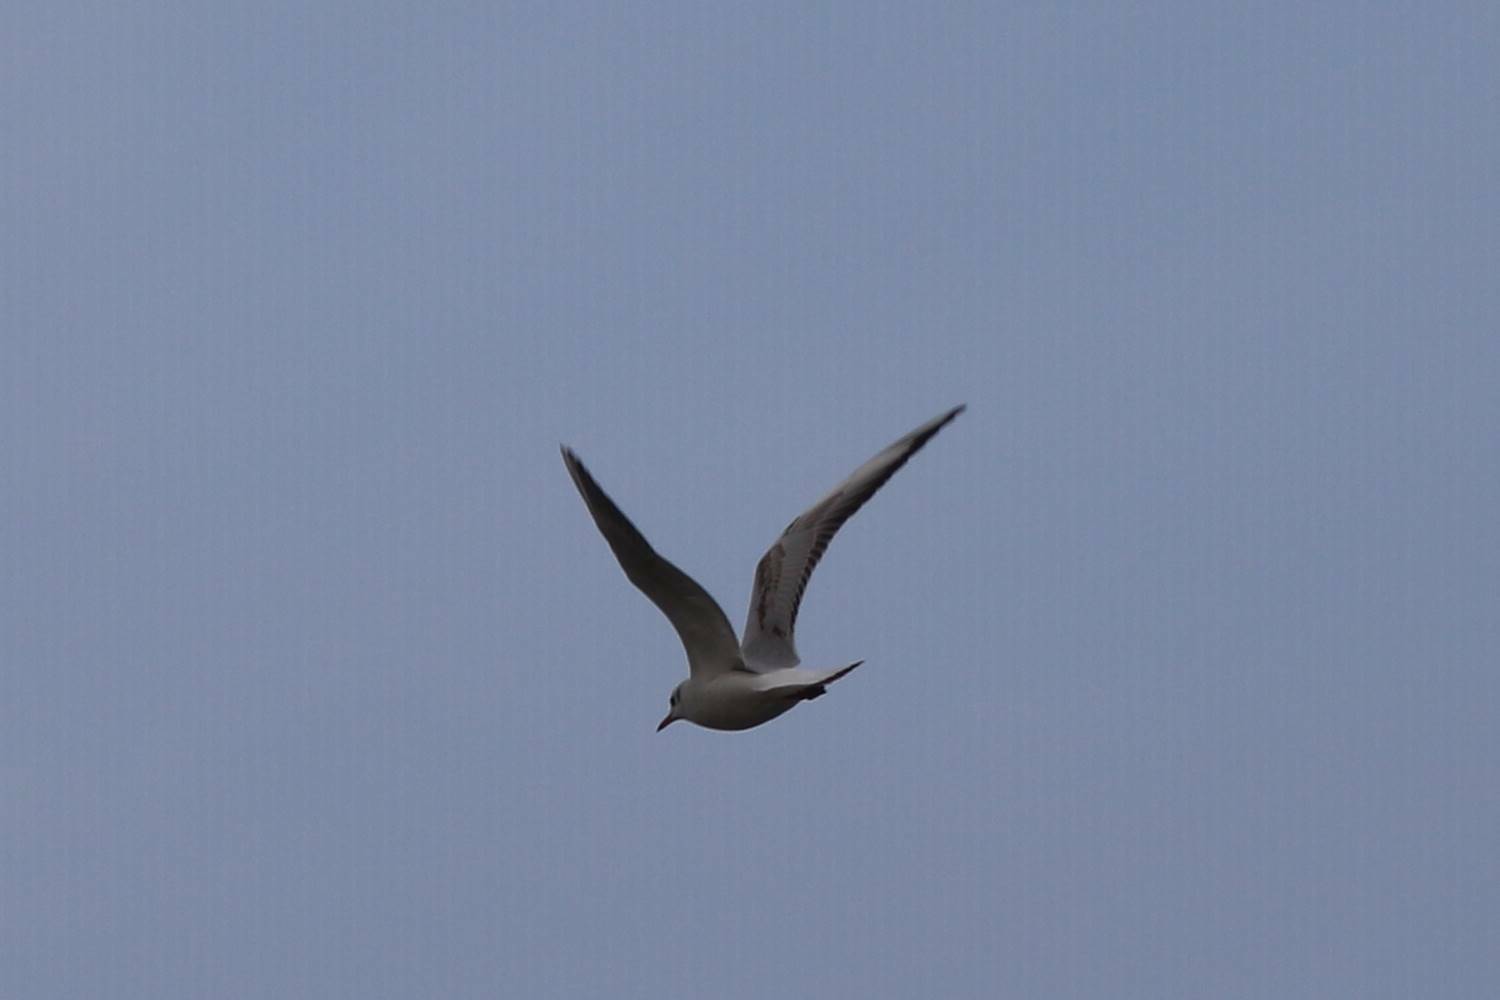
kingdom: Animalia
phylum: Chordata
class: Aves
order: Charadriiformes
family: Laridae
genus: Chroicocephalus
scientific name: Chroicocephalus ridibundus
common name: Black-headed gull
